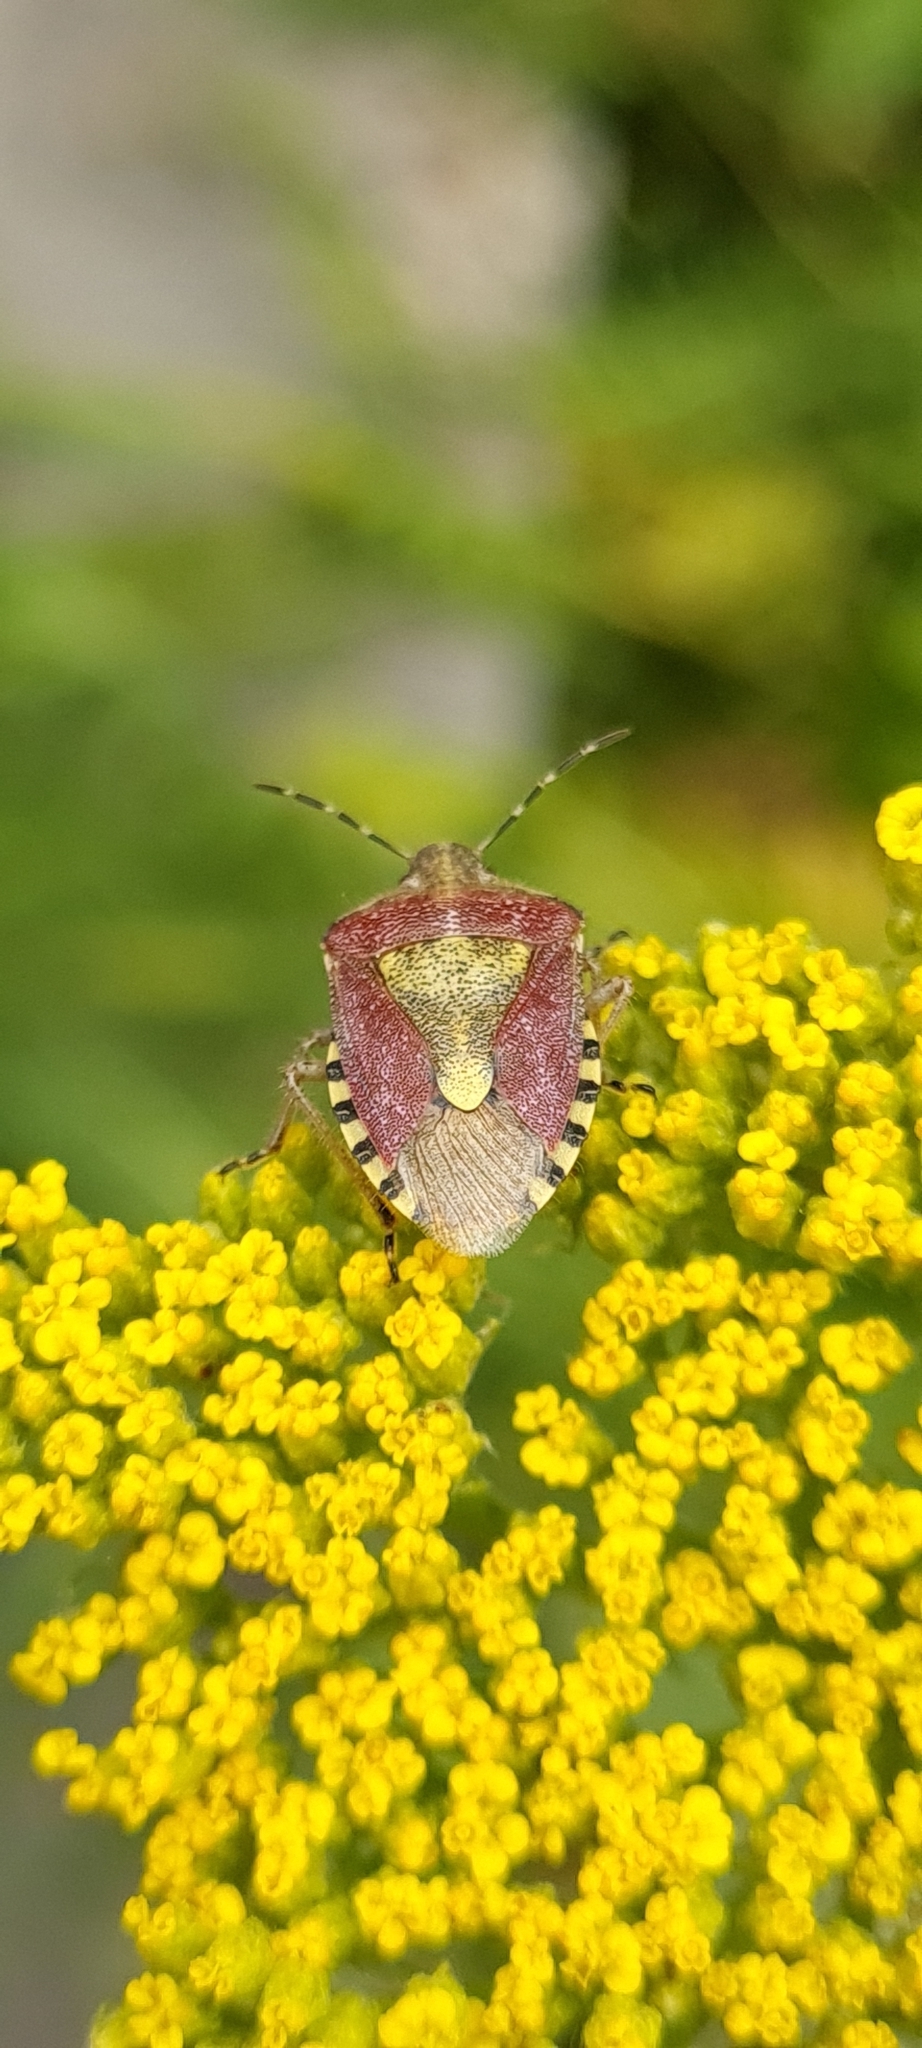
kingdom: Animalia
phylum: Arthropoda
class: Insecta
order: Hemiptera
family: Pentatomidae
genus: Dolycoris
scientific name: Dolycoris baccarum
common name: Sloe bug
